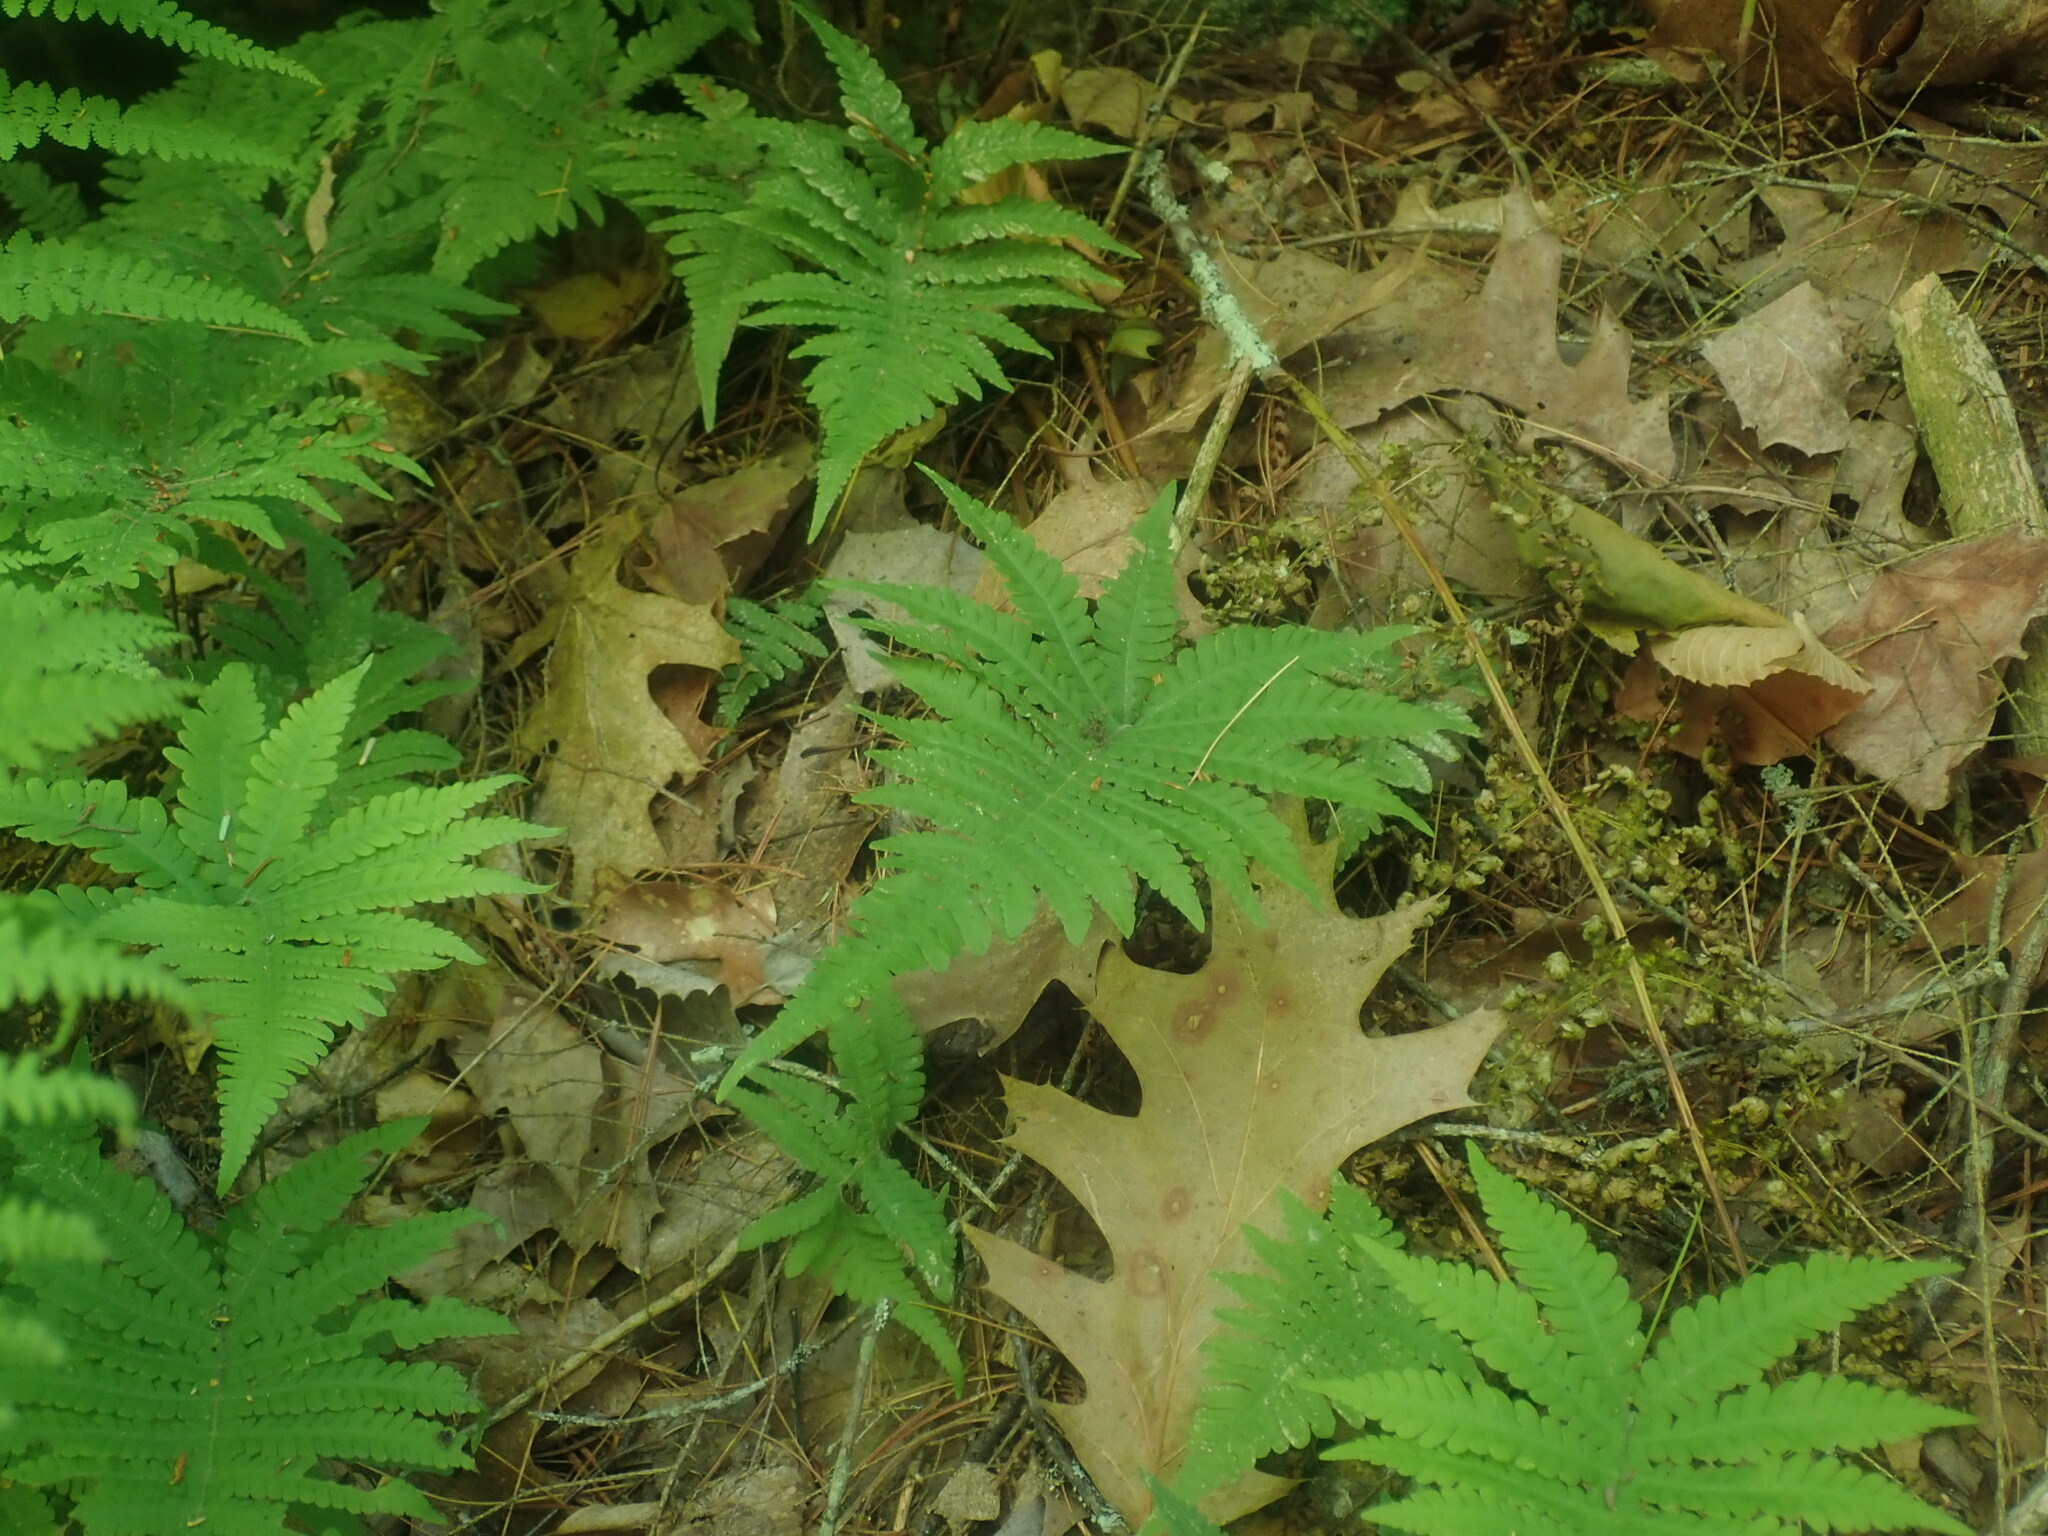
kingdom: Plantae
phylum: Tracheophyta
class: Polypodiopsida
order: Polypodiales
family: Thelypteridaceae
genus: Phegopteris
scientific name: Phegopteris connectilis
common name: Beech fern
